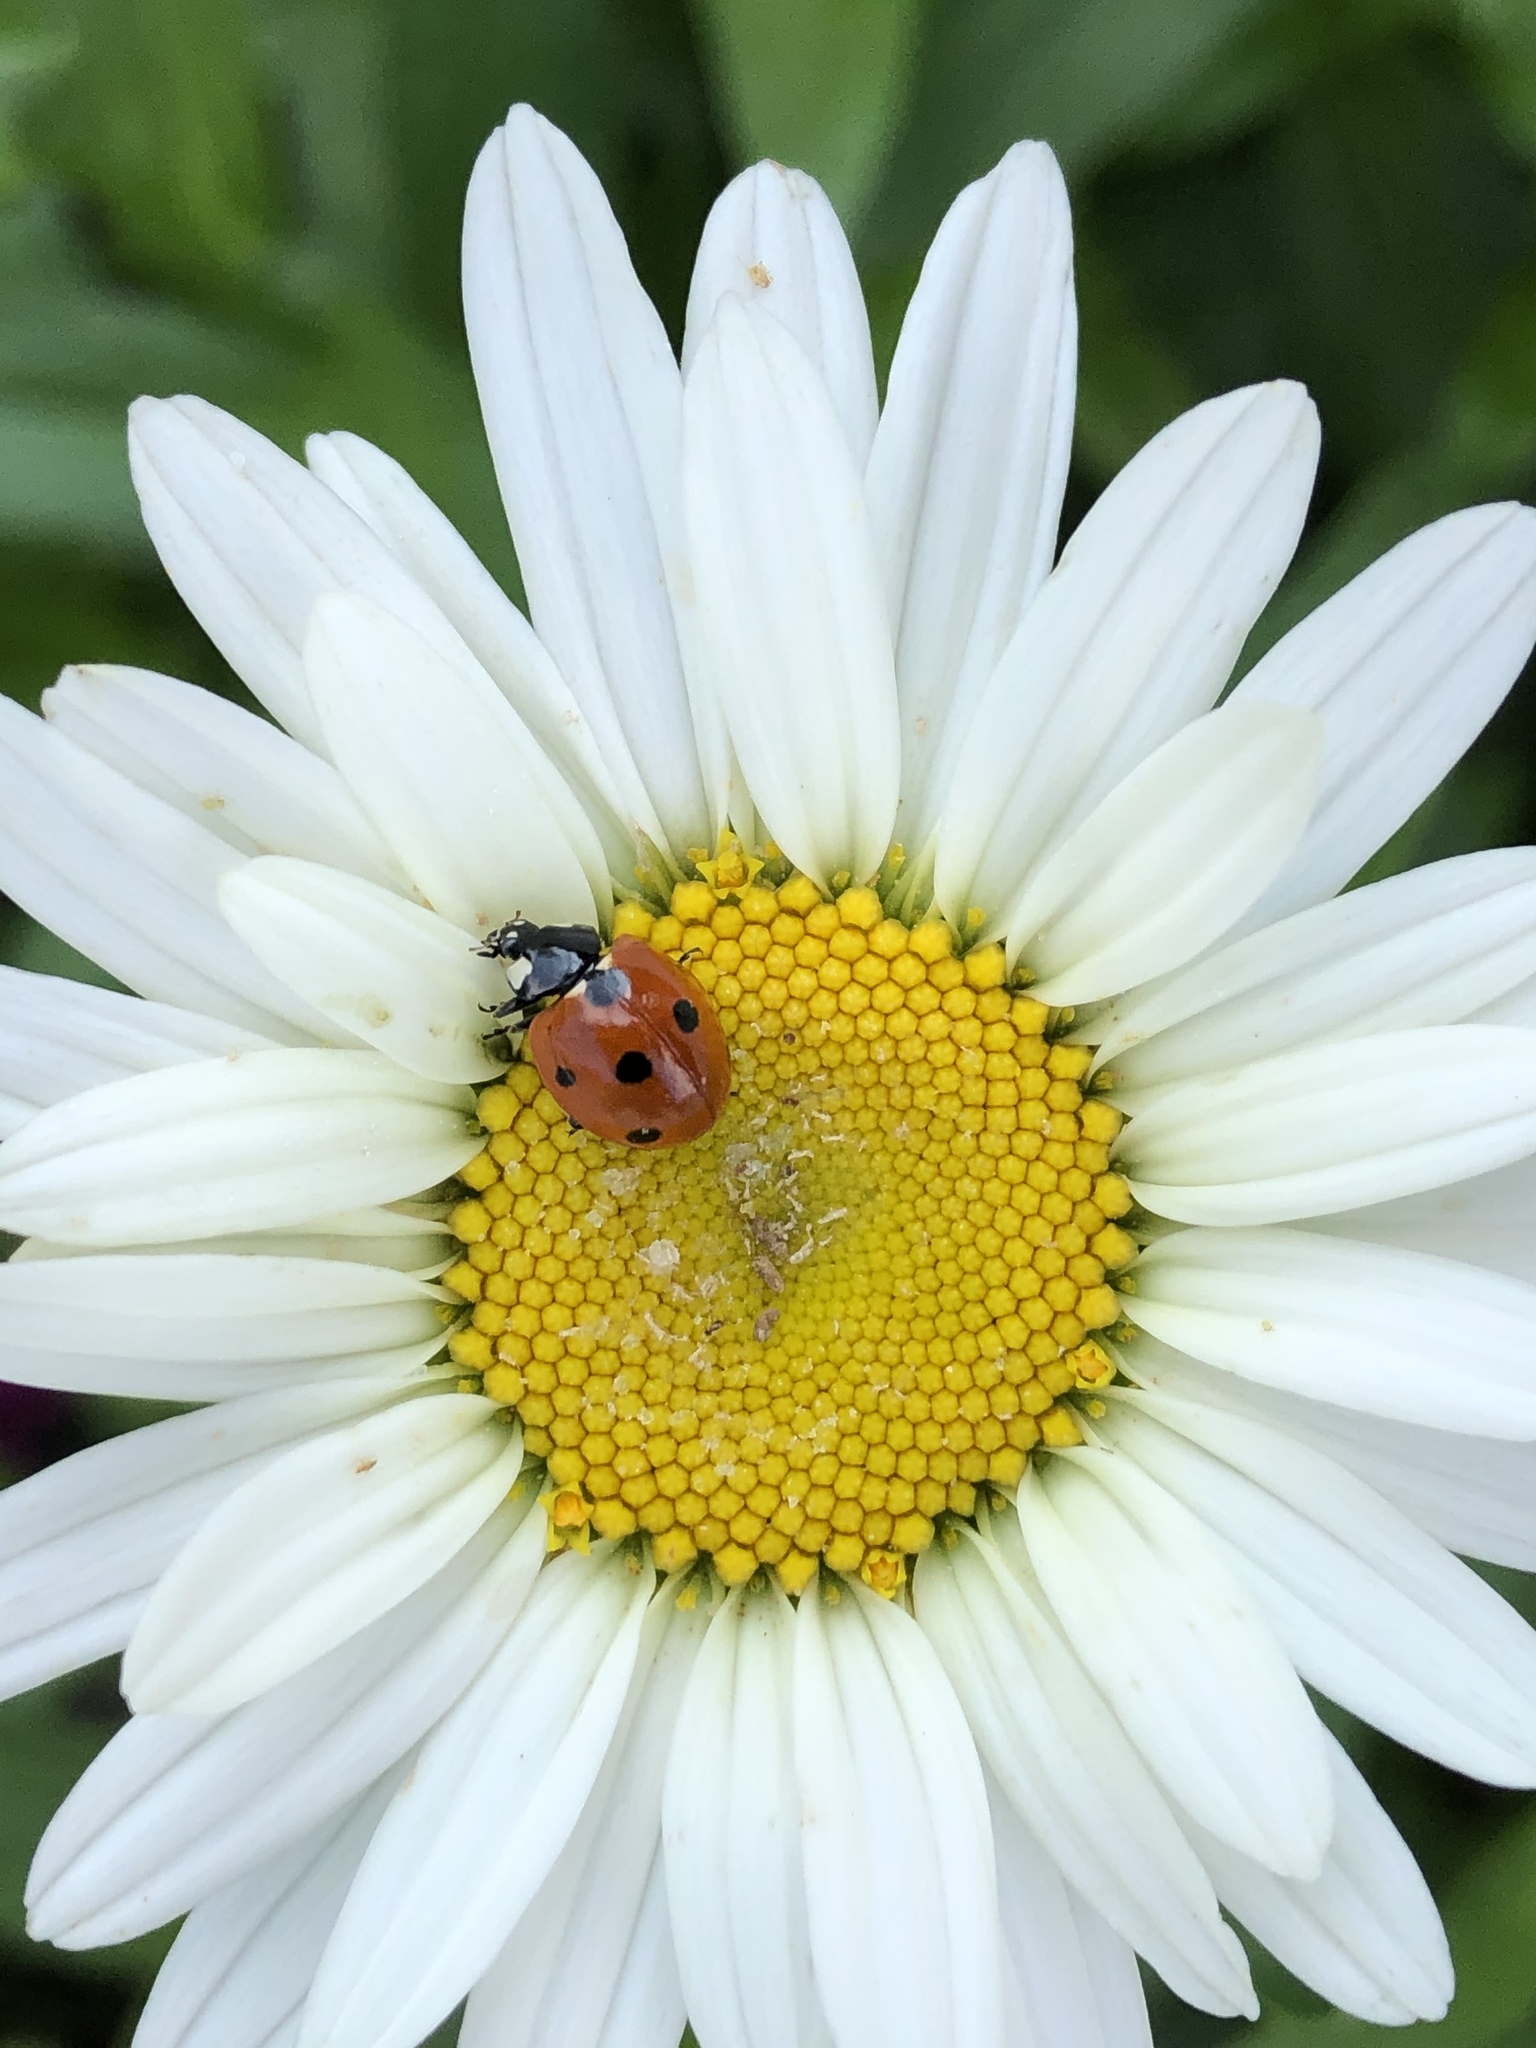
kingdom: Animalia
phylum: Arthropoda
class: Insecta
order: Coleoptera
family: Coccinellidae
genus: Coccinella
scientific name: Coccinella septempunctata
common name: Sevenspotted lady beetle
